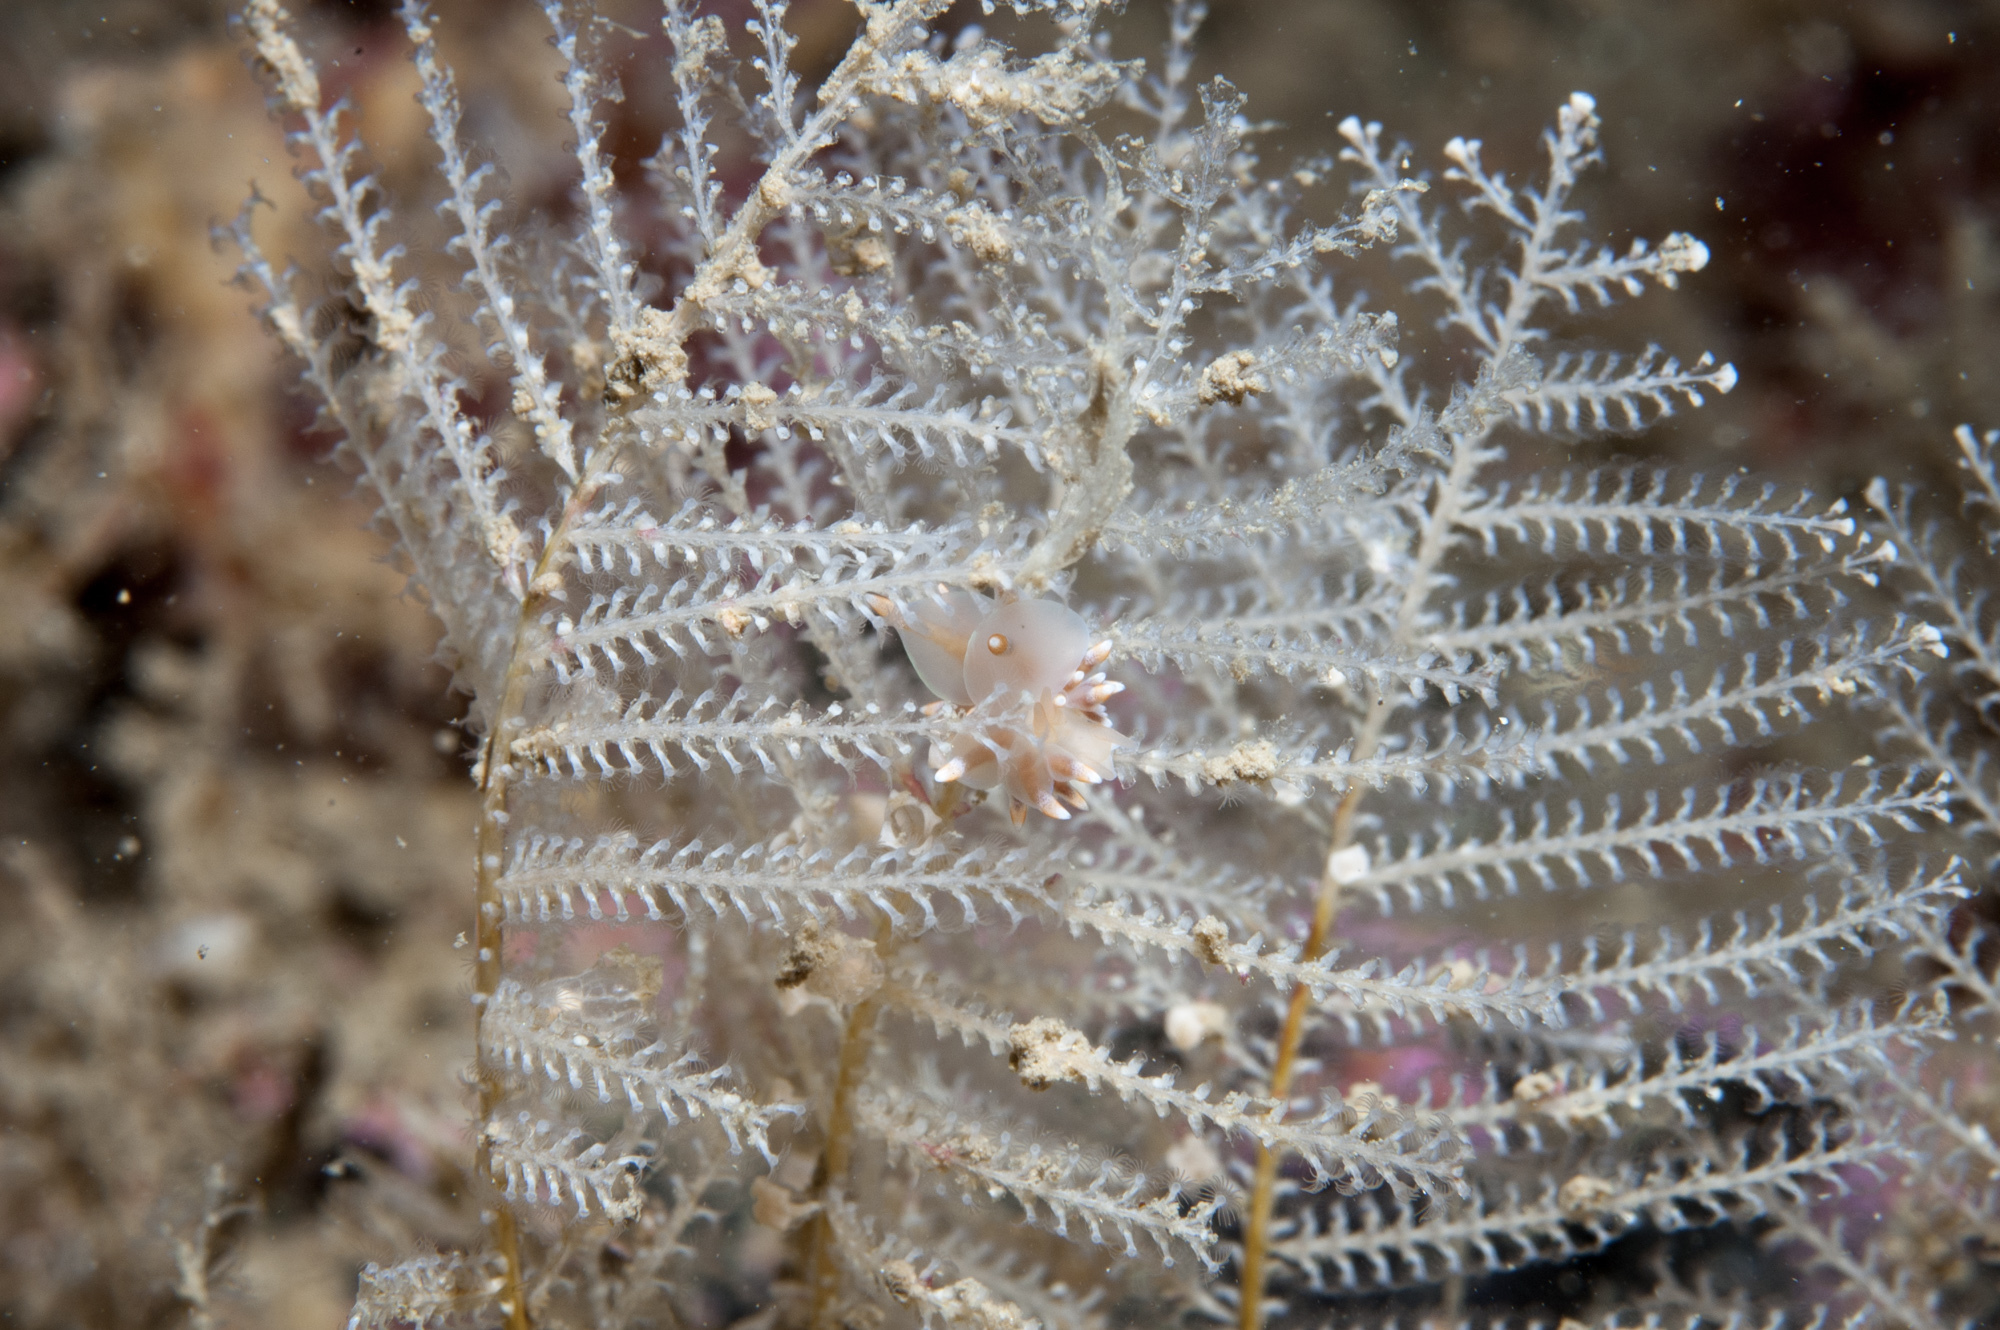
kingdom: Animalia
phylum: Cnidaria
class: Hydrozoa
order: Leptothecata
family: Sertulariidae
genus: Diphasia
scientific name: Diphasia margareta
